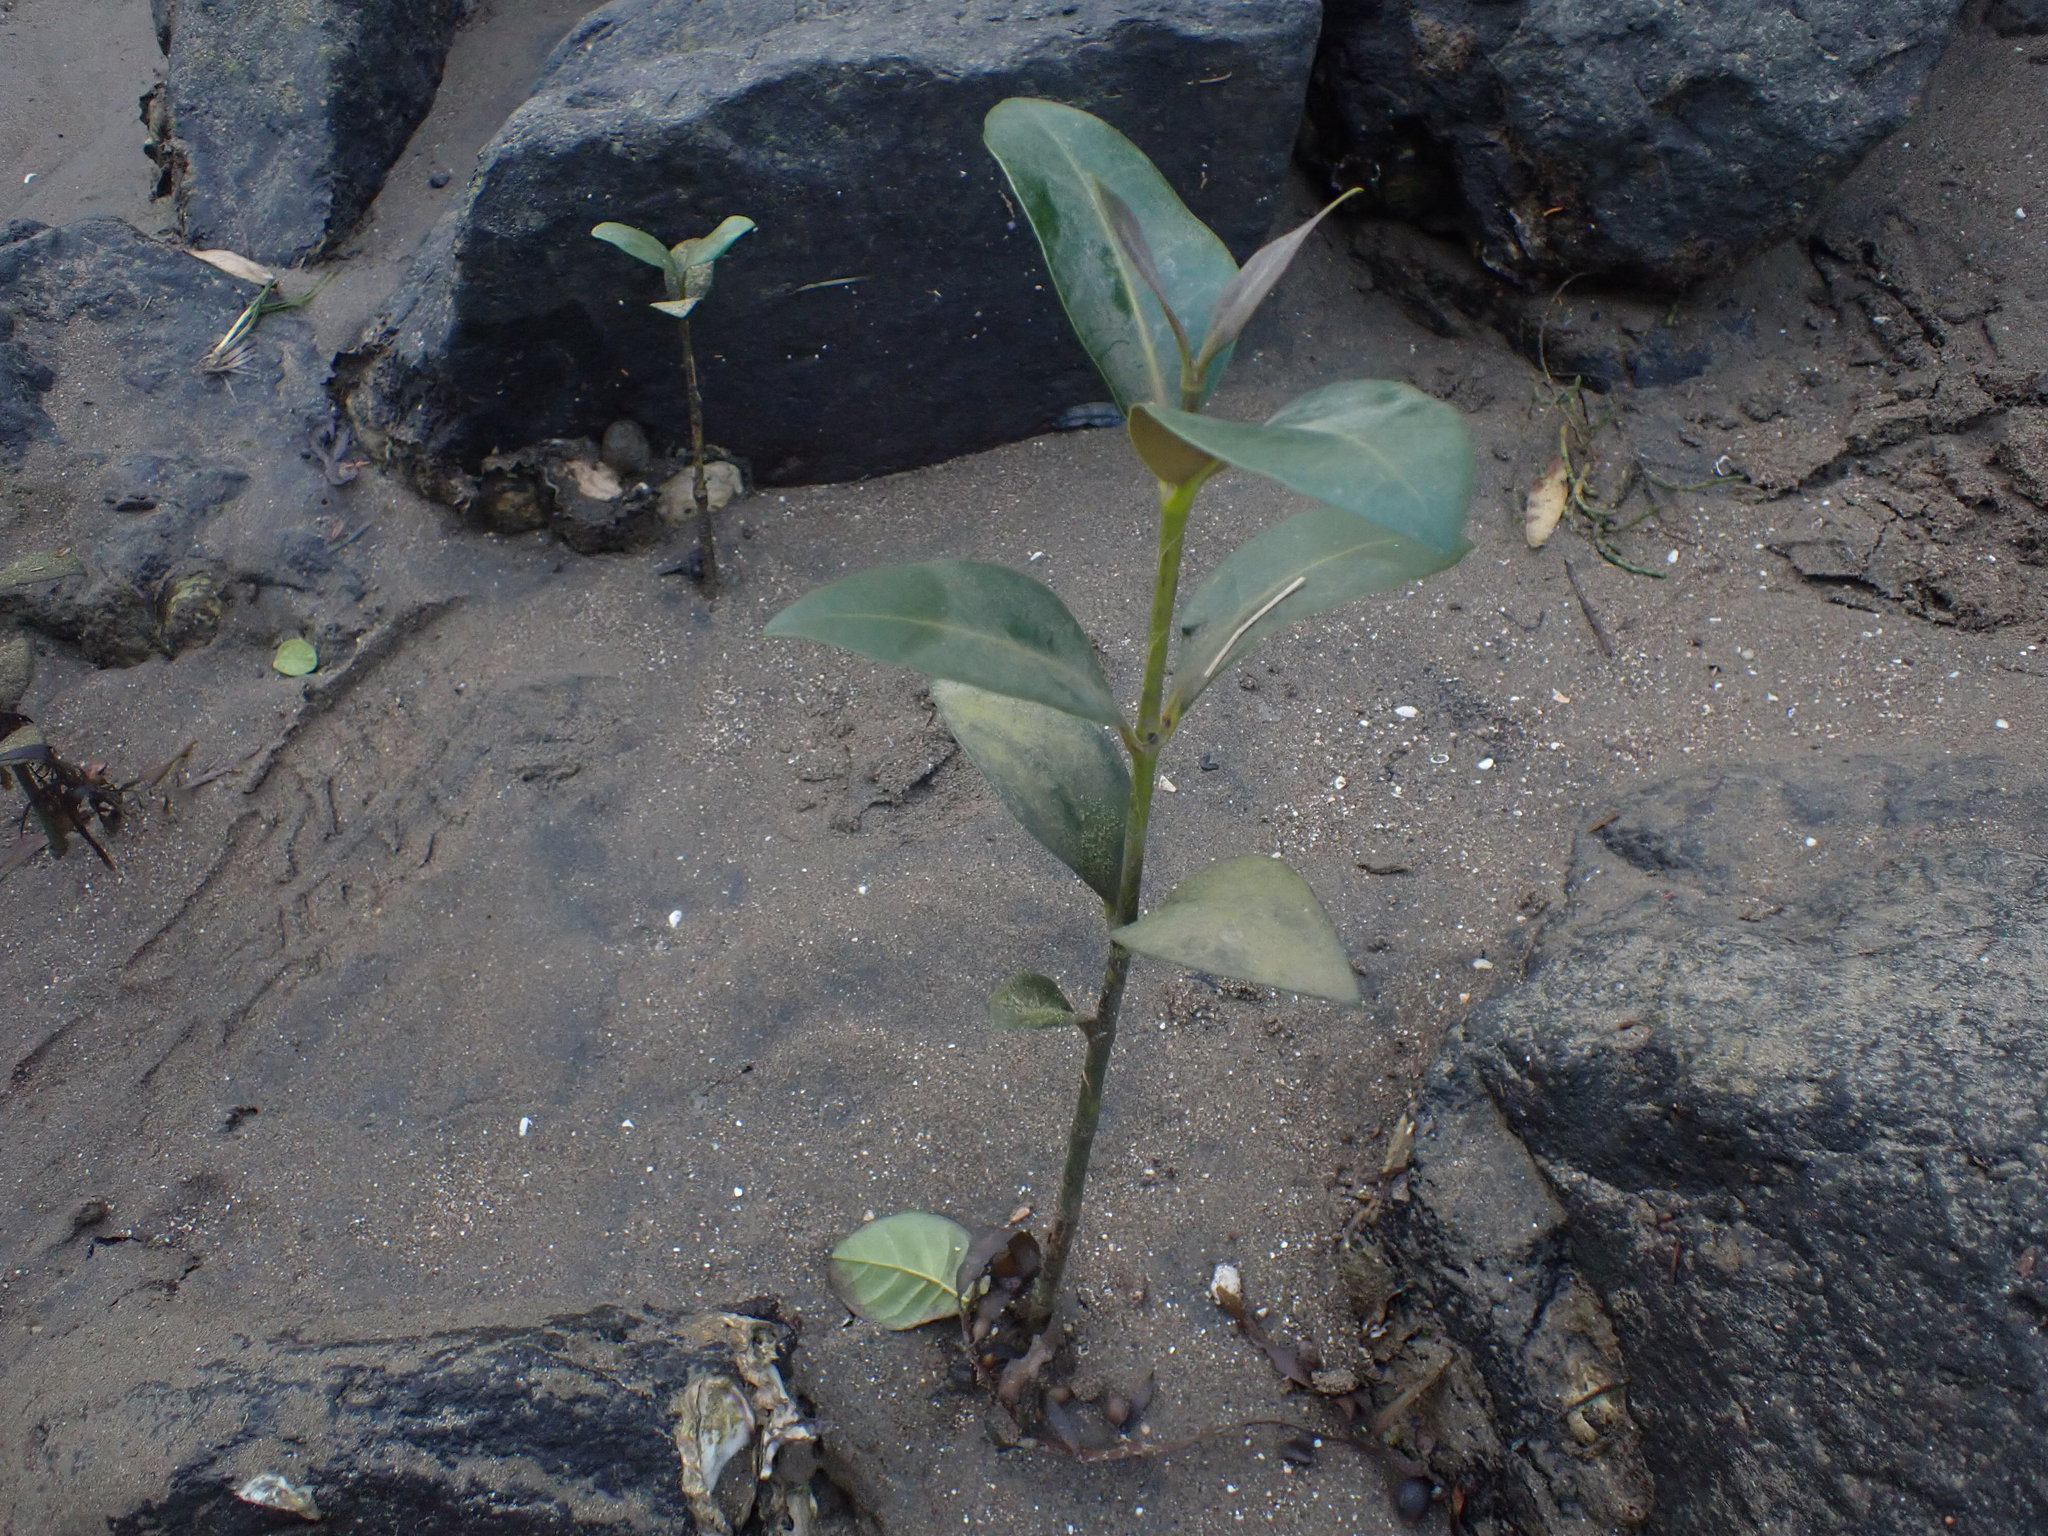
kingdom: Plantae
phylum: Tracheophyta
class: Magnoliopsida
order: Lamiales
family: Acanthaceae
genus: Avicennia
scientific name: Avicennia marina
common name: Gray mangrove
